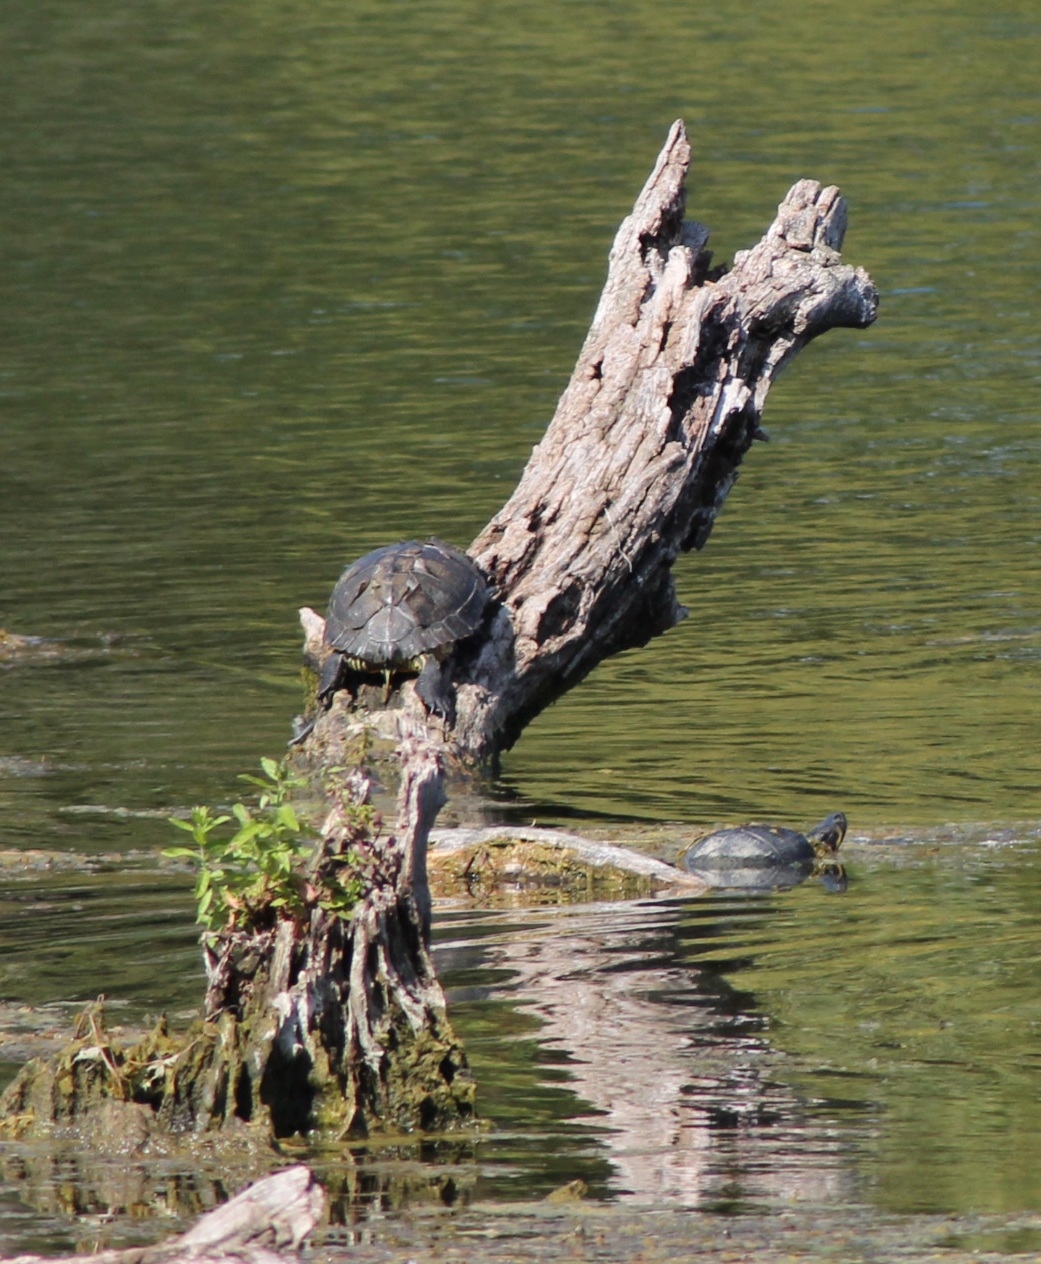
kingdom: Animalia
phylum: Chordata
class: Testudines
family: Emydidae
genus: Trachemys
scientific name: Trachemys scripta
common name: Slider
